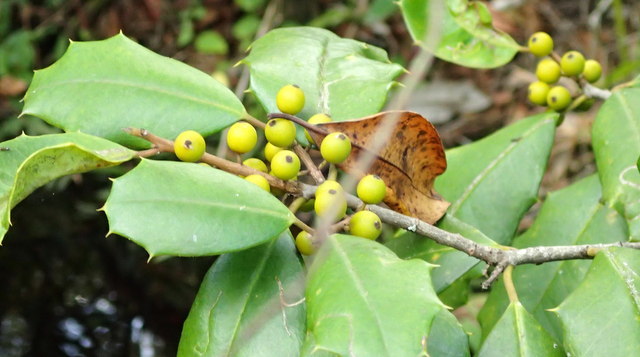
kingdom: Plantae
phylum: Tracheophyta
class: Magnoliopsida
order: Aquifoliales
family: Aquifoliaceae
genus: Ilex
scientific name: Ilex opaca
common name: American holly
